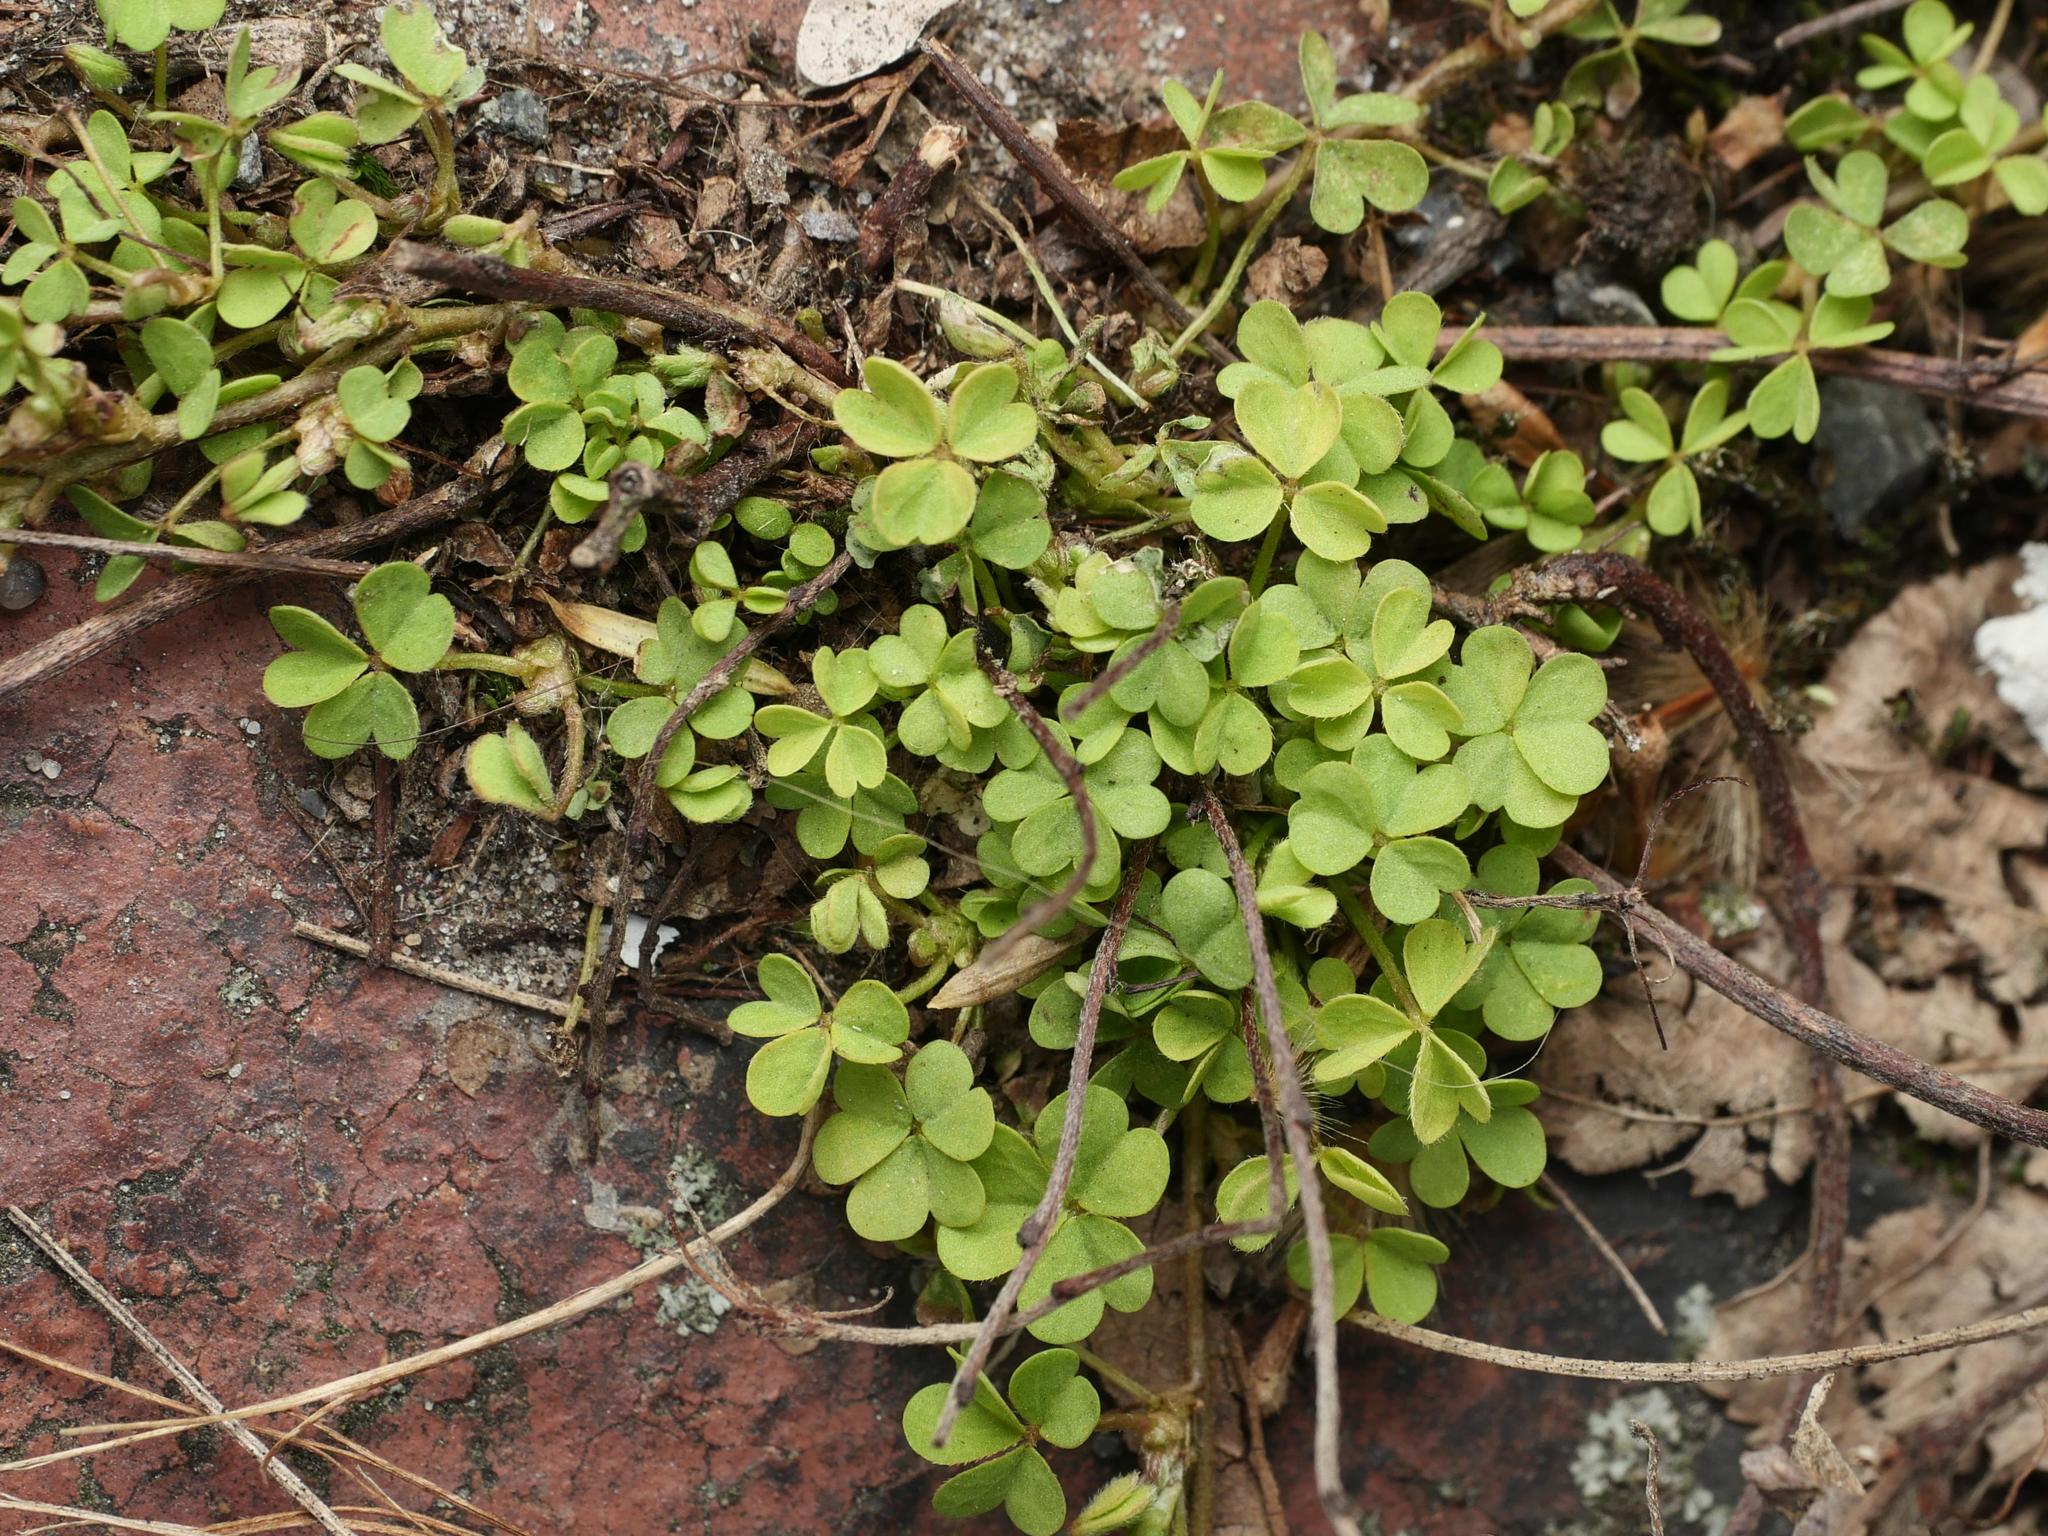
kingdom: Plantae
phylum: Tracheophyta
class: Magnoliopsida
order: Oxalidales
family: Oxalidaceae
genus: Oxalis
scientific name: Oxalis corniculata
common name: Procumbent yellow-sorrel
